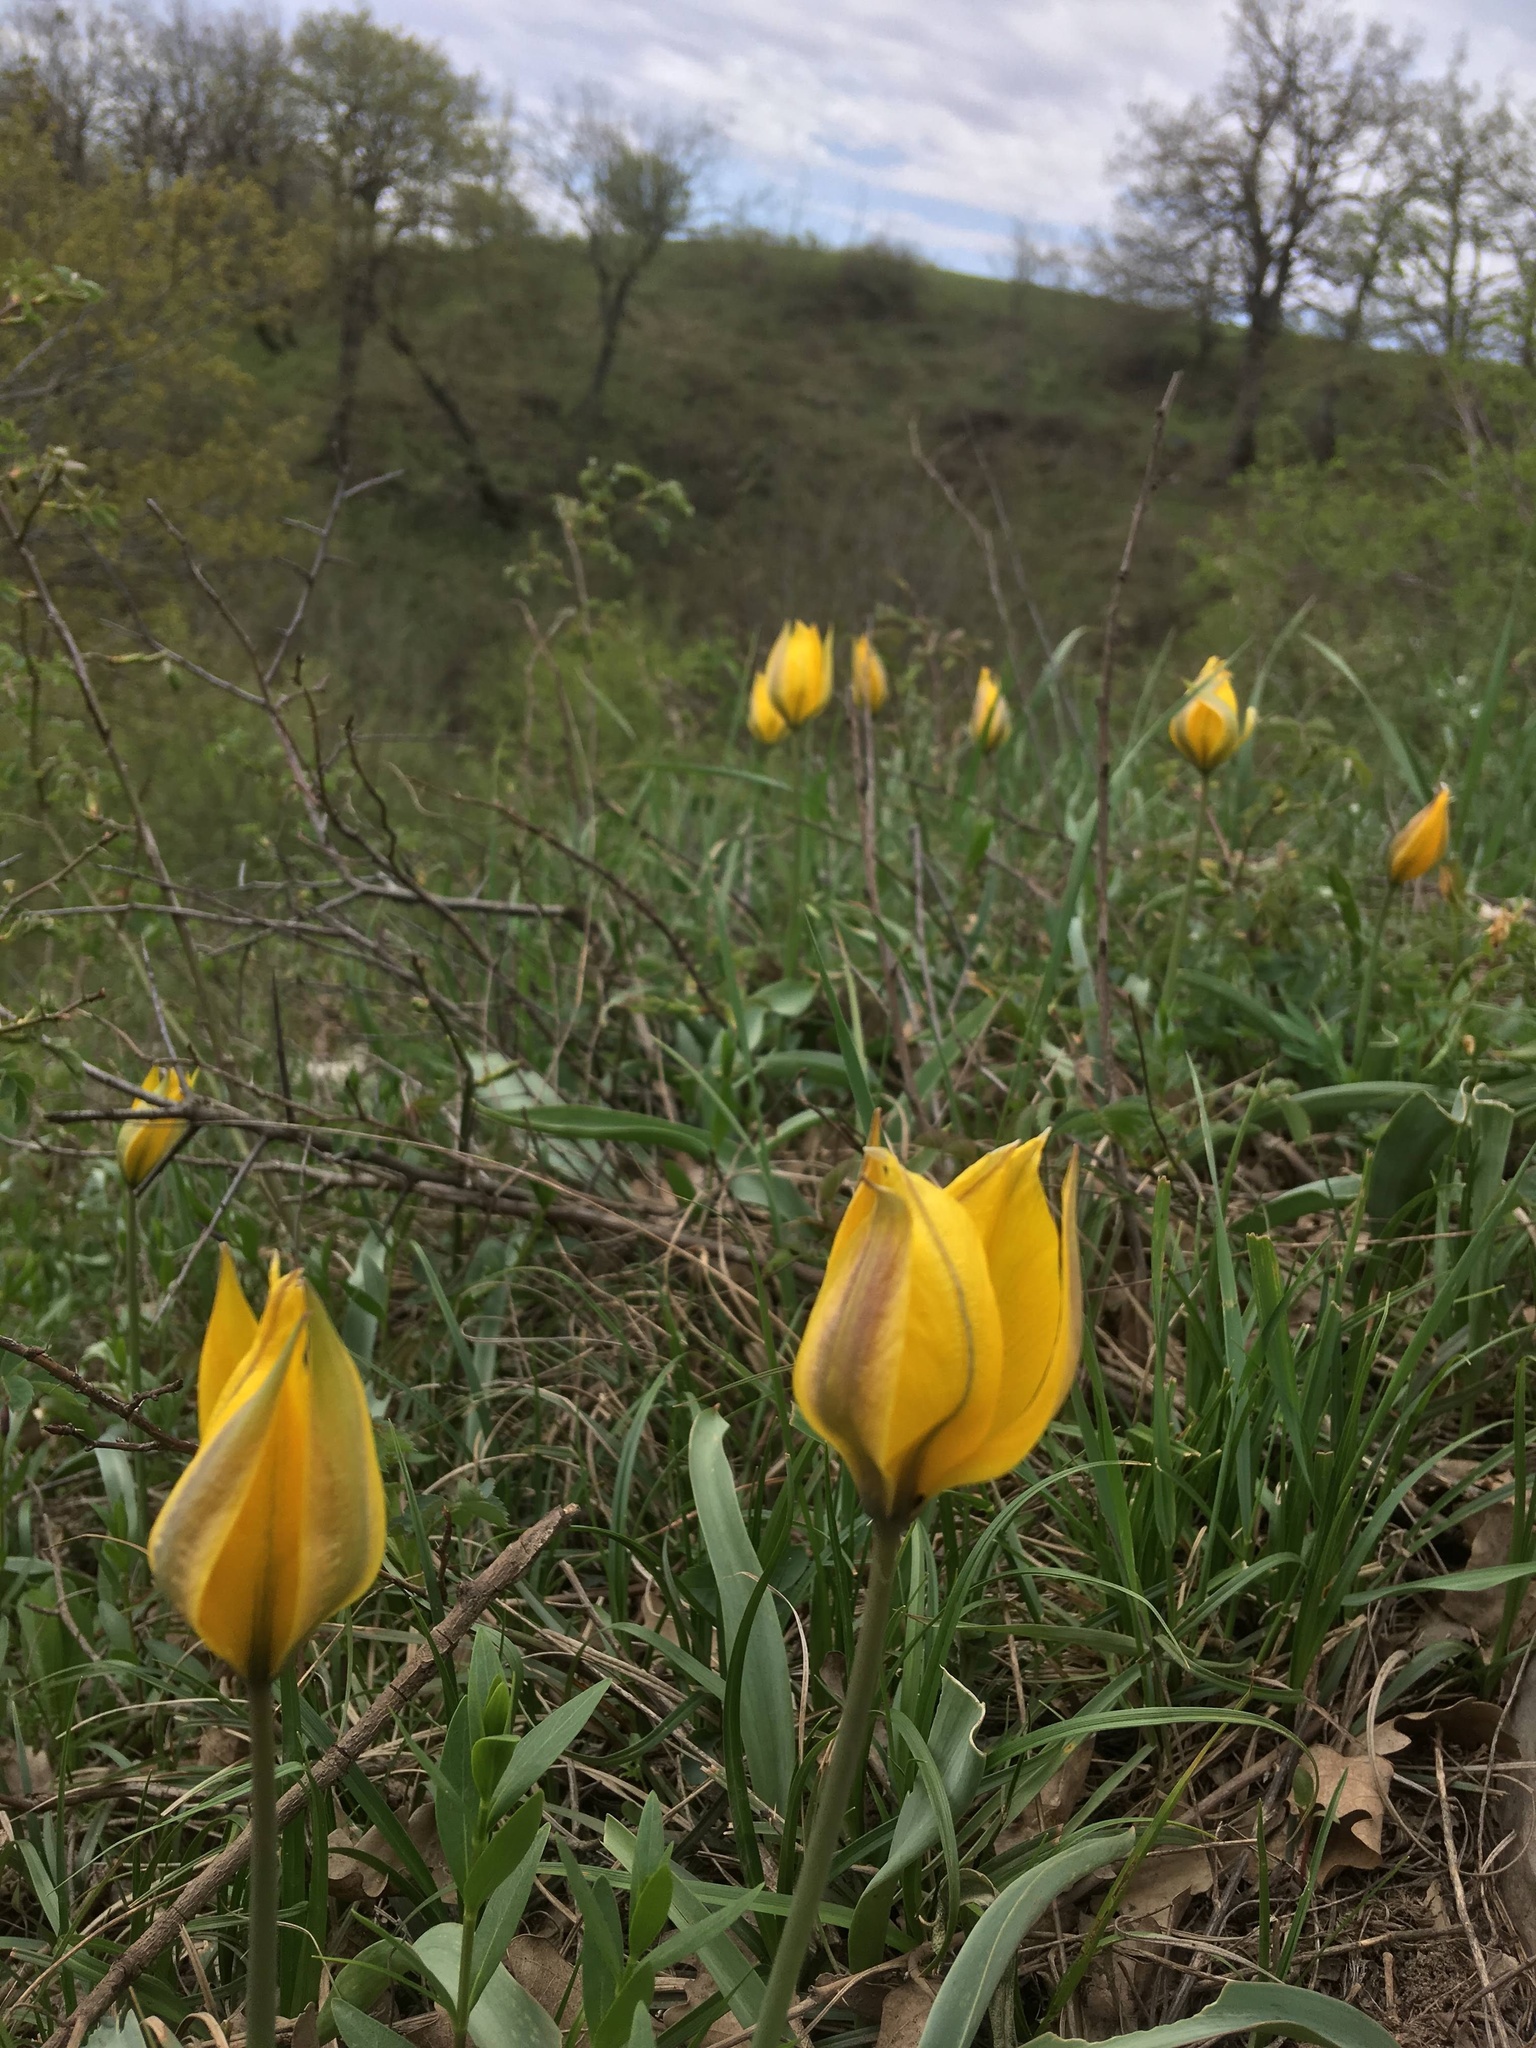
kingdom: Plantae
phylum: Tracheophyta
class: Liliopsida
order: Liliales
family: Liliaceae
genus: Tulipa
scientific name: Tulipa sylvestris
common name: Wild tulip
